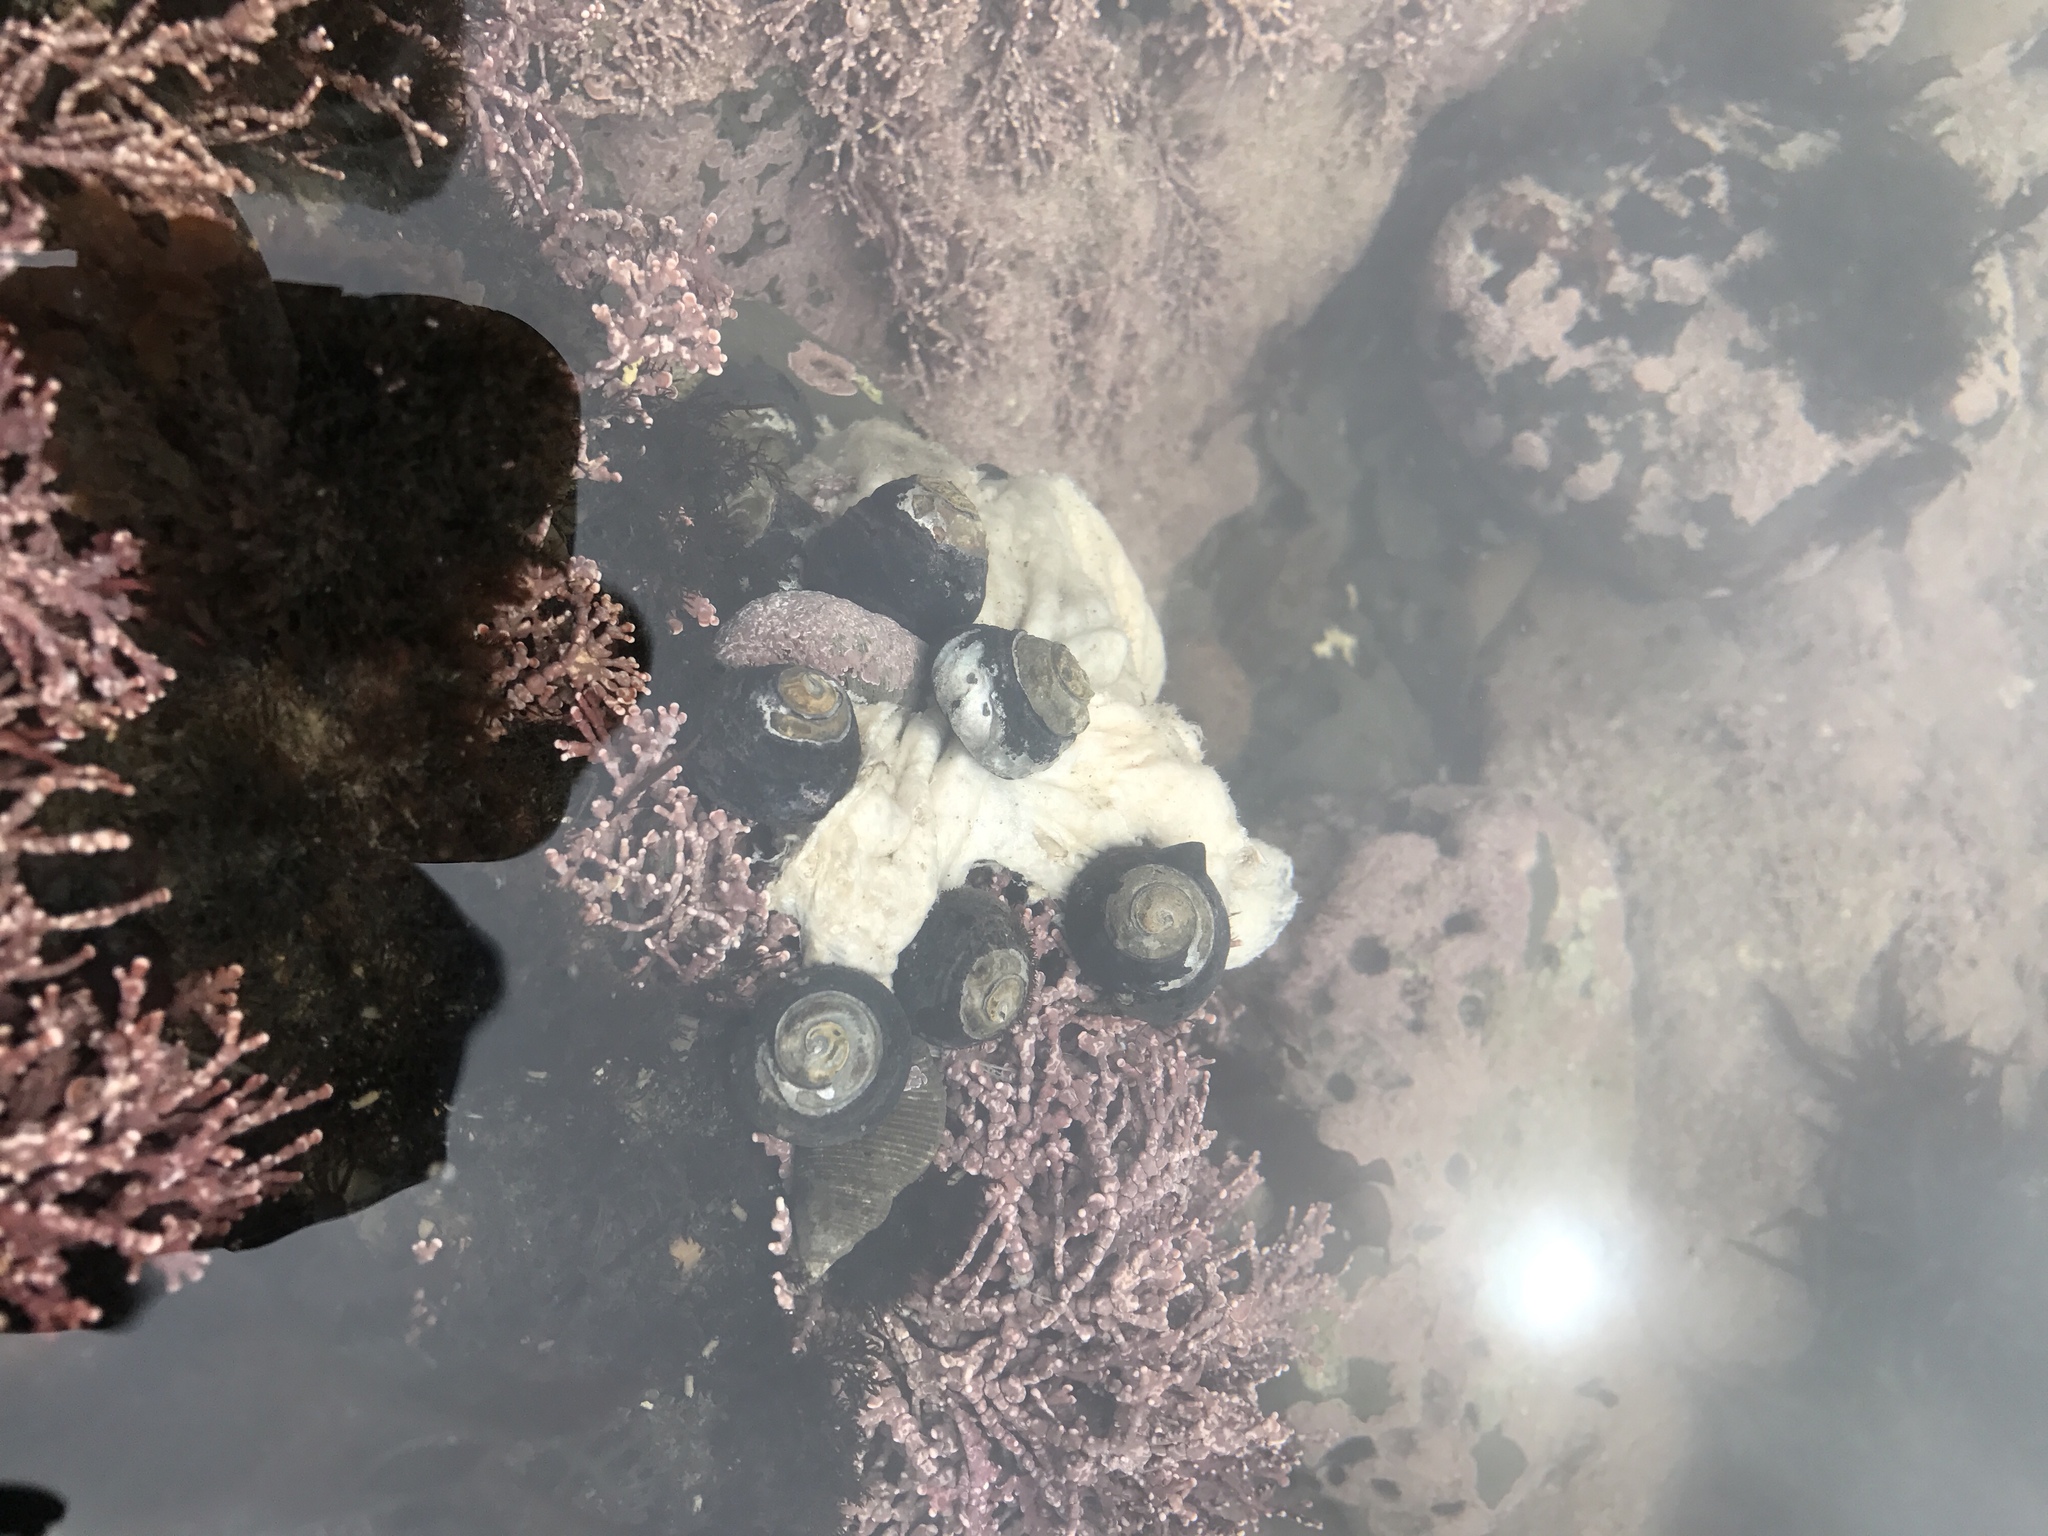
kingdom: Animalia
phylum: Mollusca
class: Gastropoda
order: Trochida
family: Tegulidae
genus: Tegula
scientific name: Tegula funebralis
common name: Black tegula
